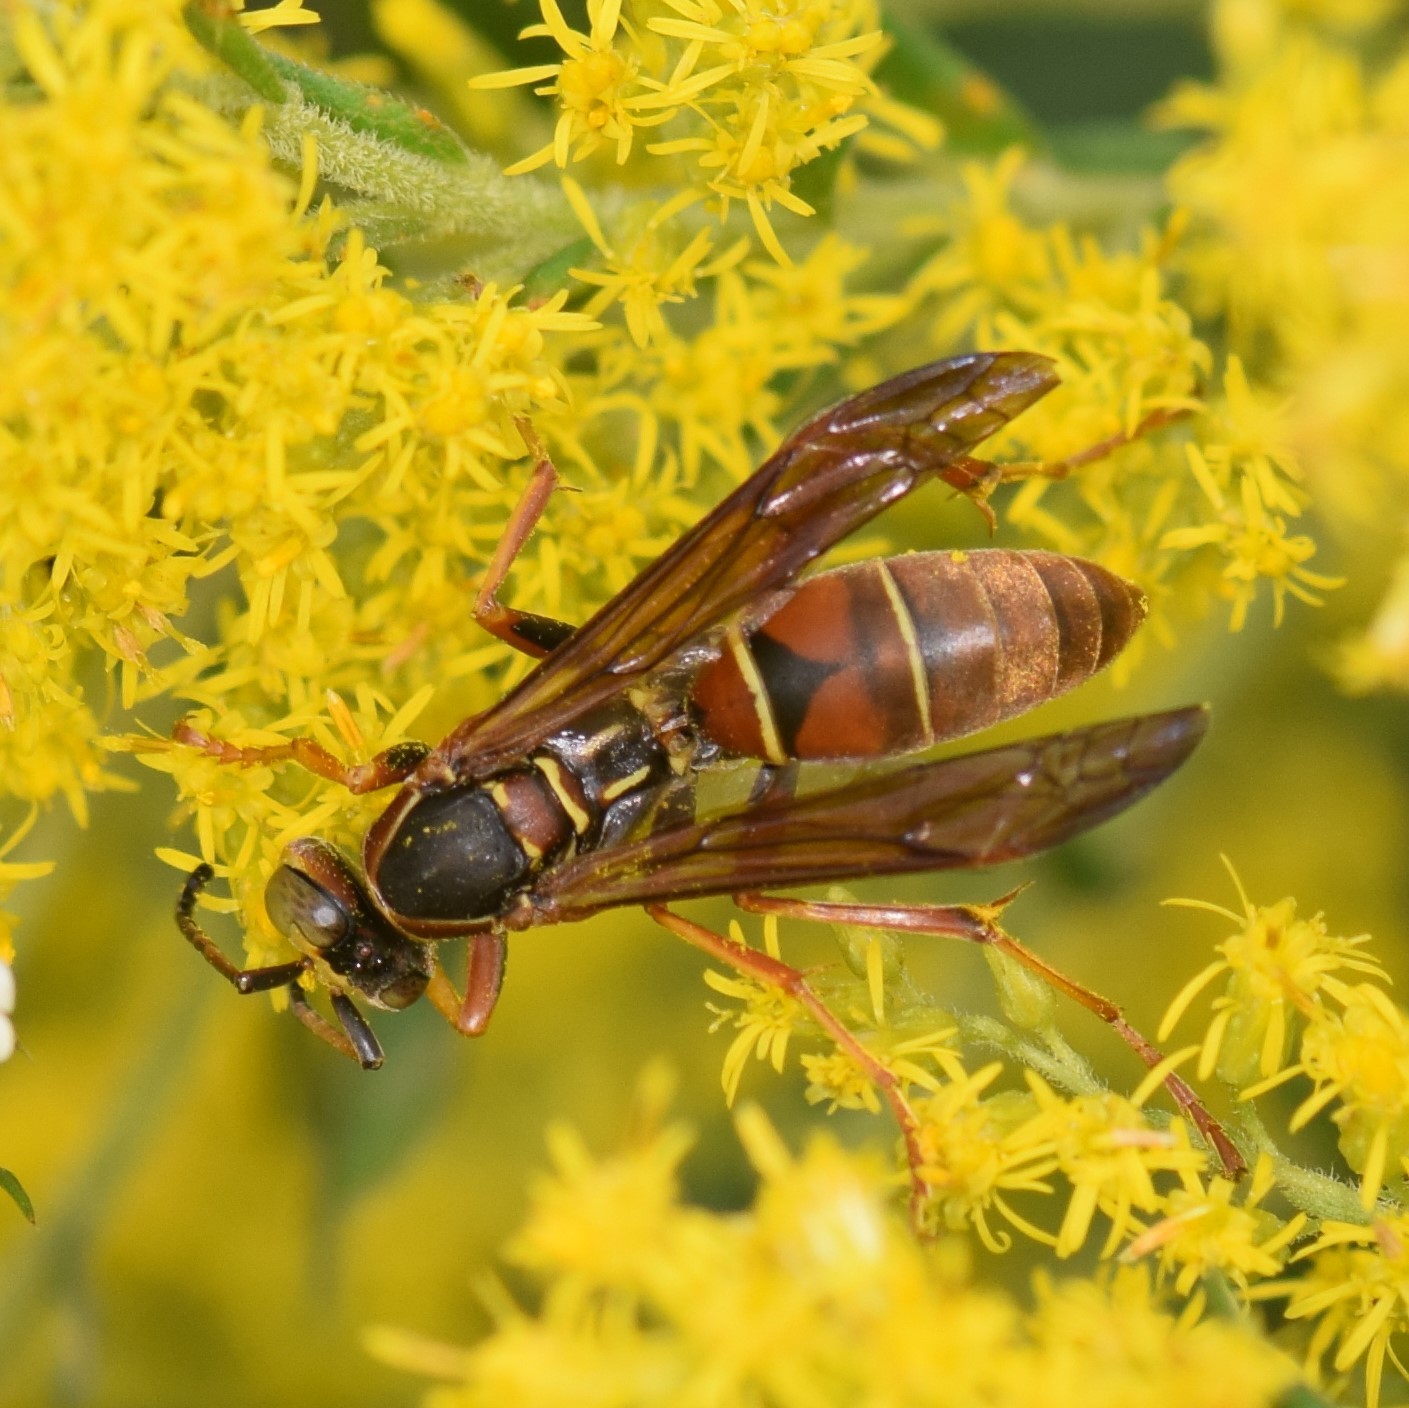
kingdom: Animalia
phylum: Arthropoda
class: Insecta
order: Hymenoptera
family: Eumenidae
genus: Polistes
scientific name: Polistes fuscatus
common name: Dark paper wasp
